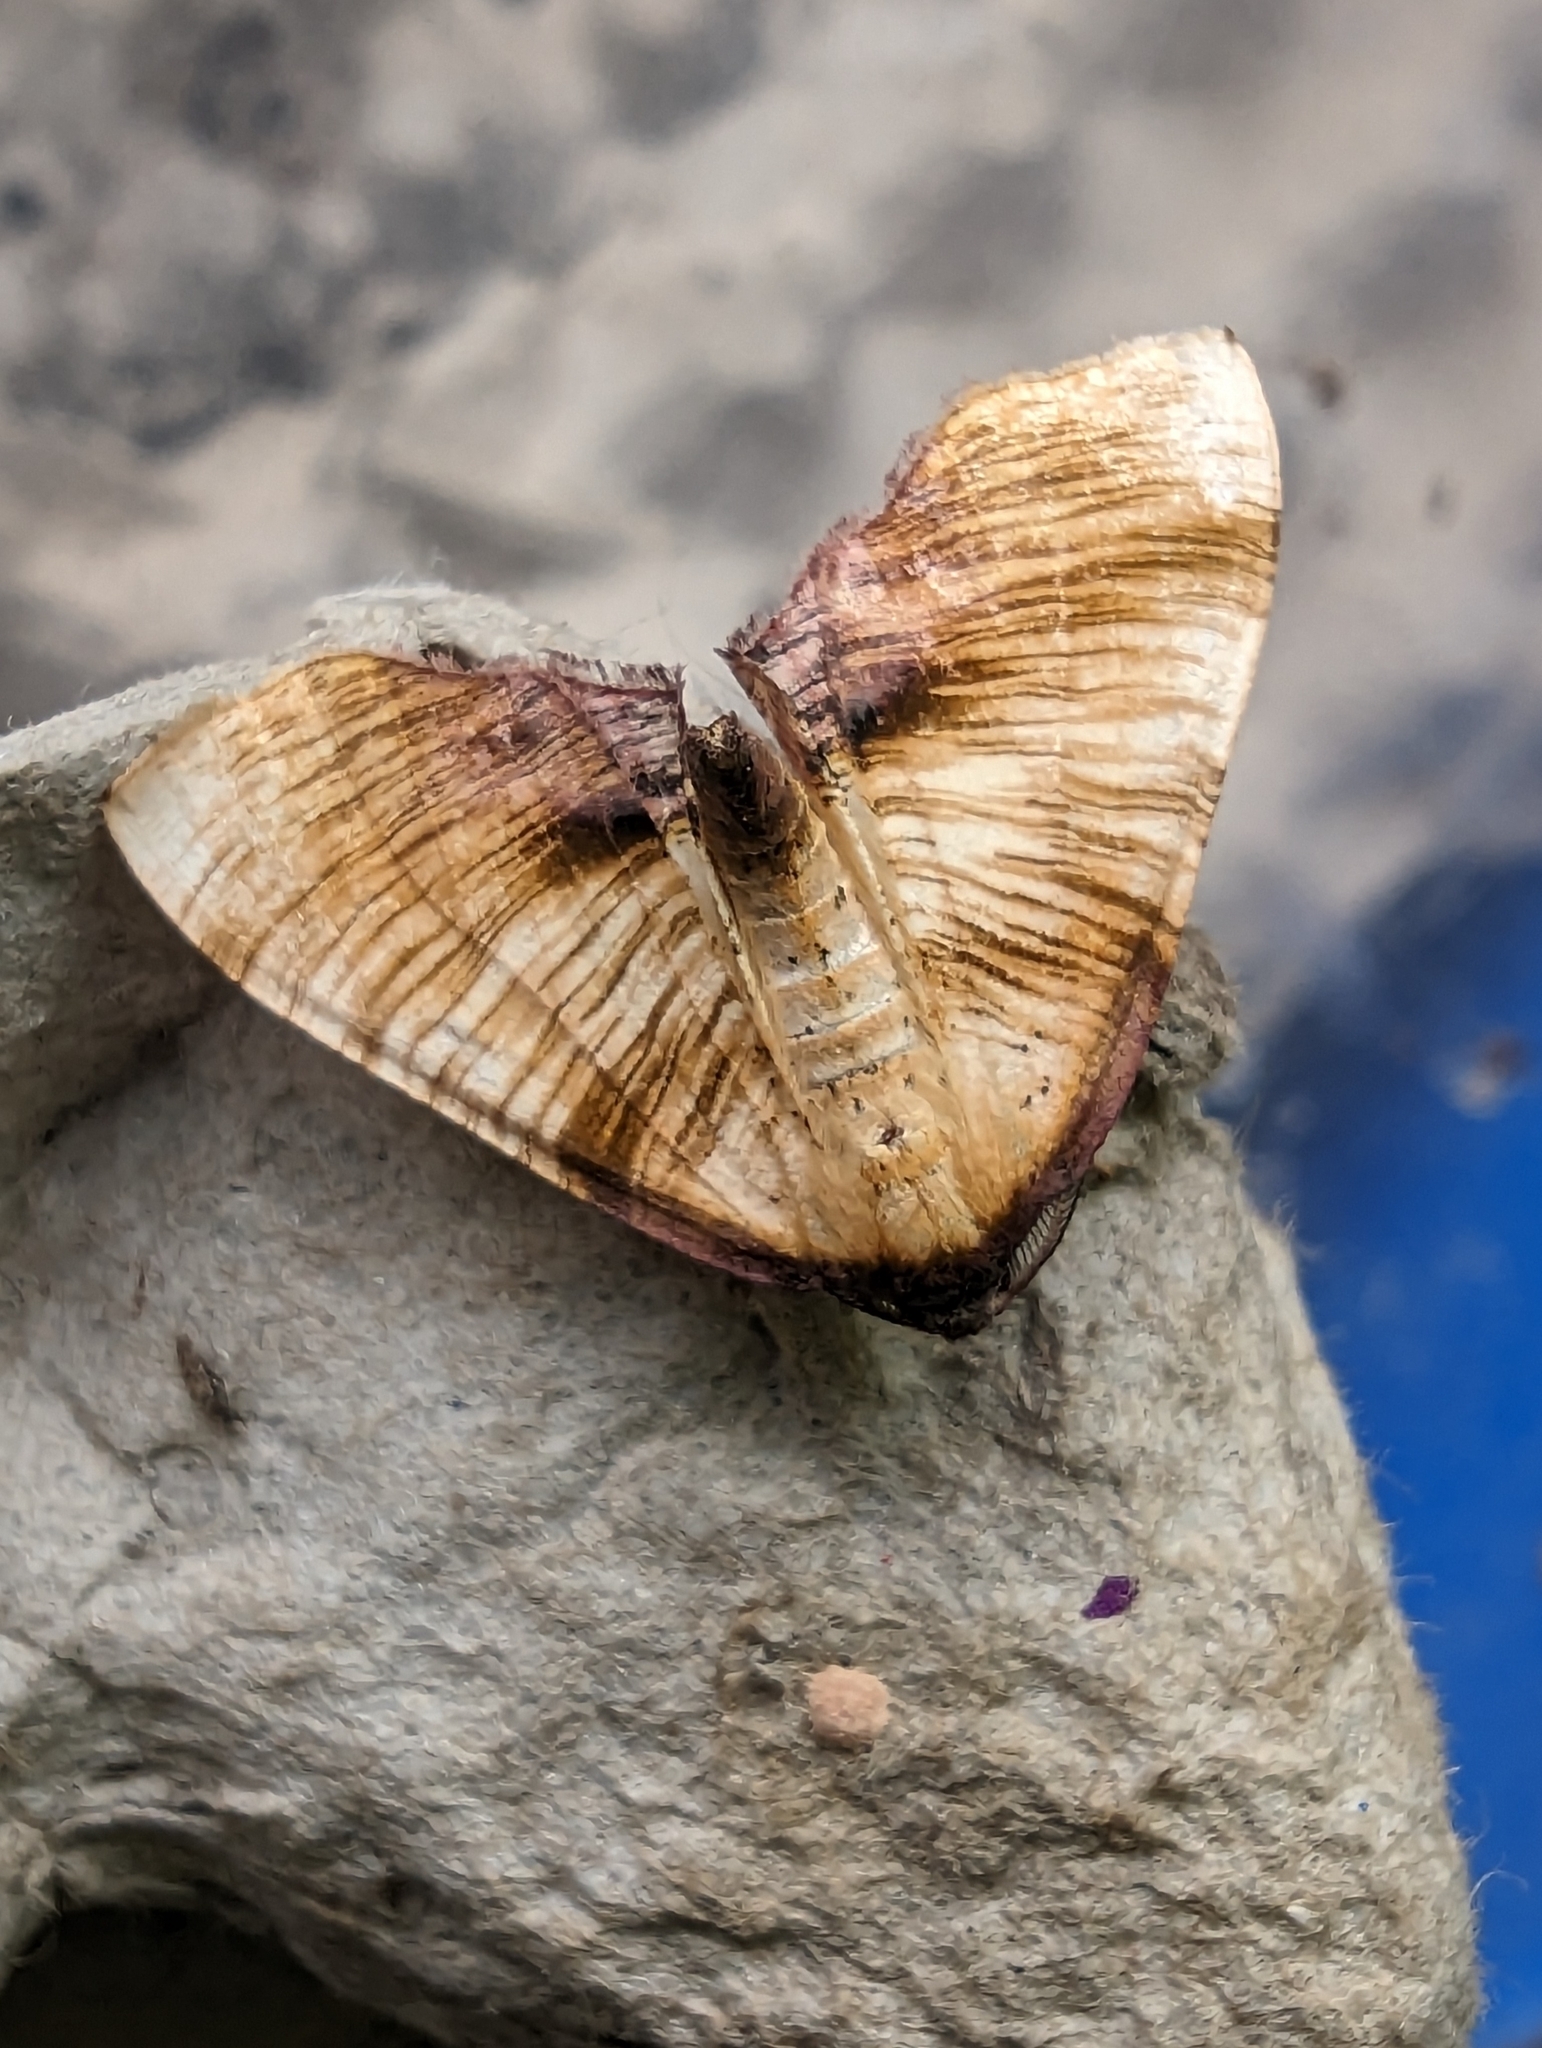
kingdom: Animalia
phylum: Arthropoda
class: Insecta
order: Lepidoptera
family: Geometridae
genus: Plagodis
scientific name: Plagodis dolabraria
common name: Scorched wing
